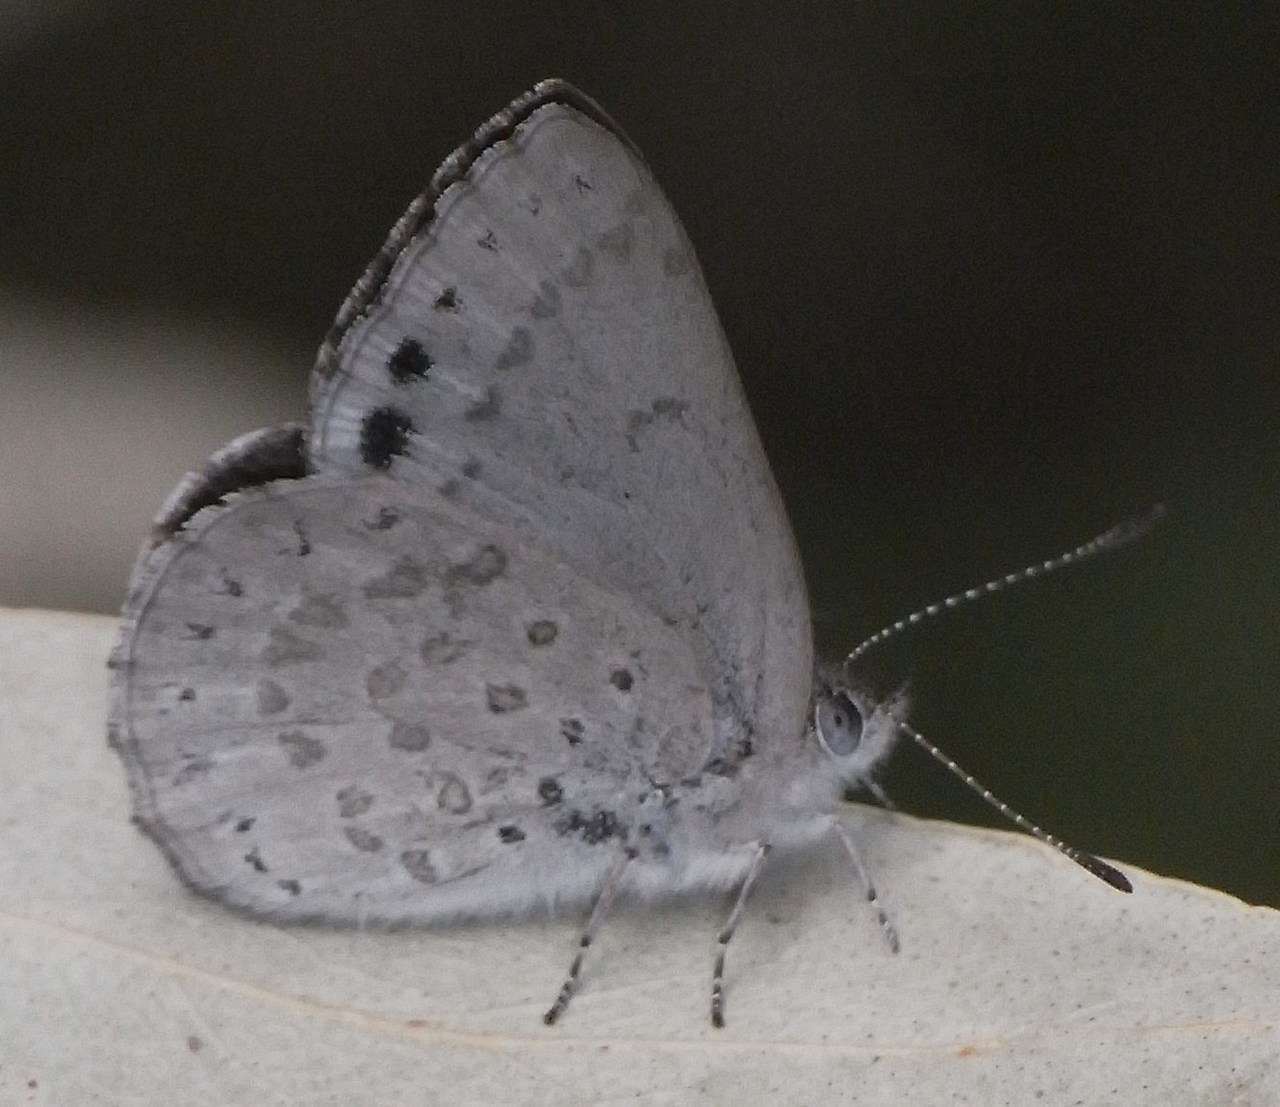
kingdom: Animalia
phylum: Arthropoda
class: Insecta
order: Lepidoptera
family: Lycaenidae
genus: Candalides
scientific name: Candalides
